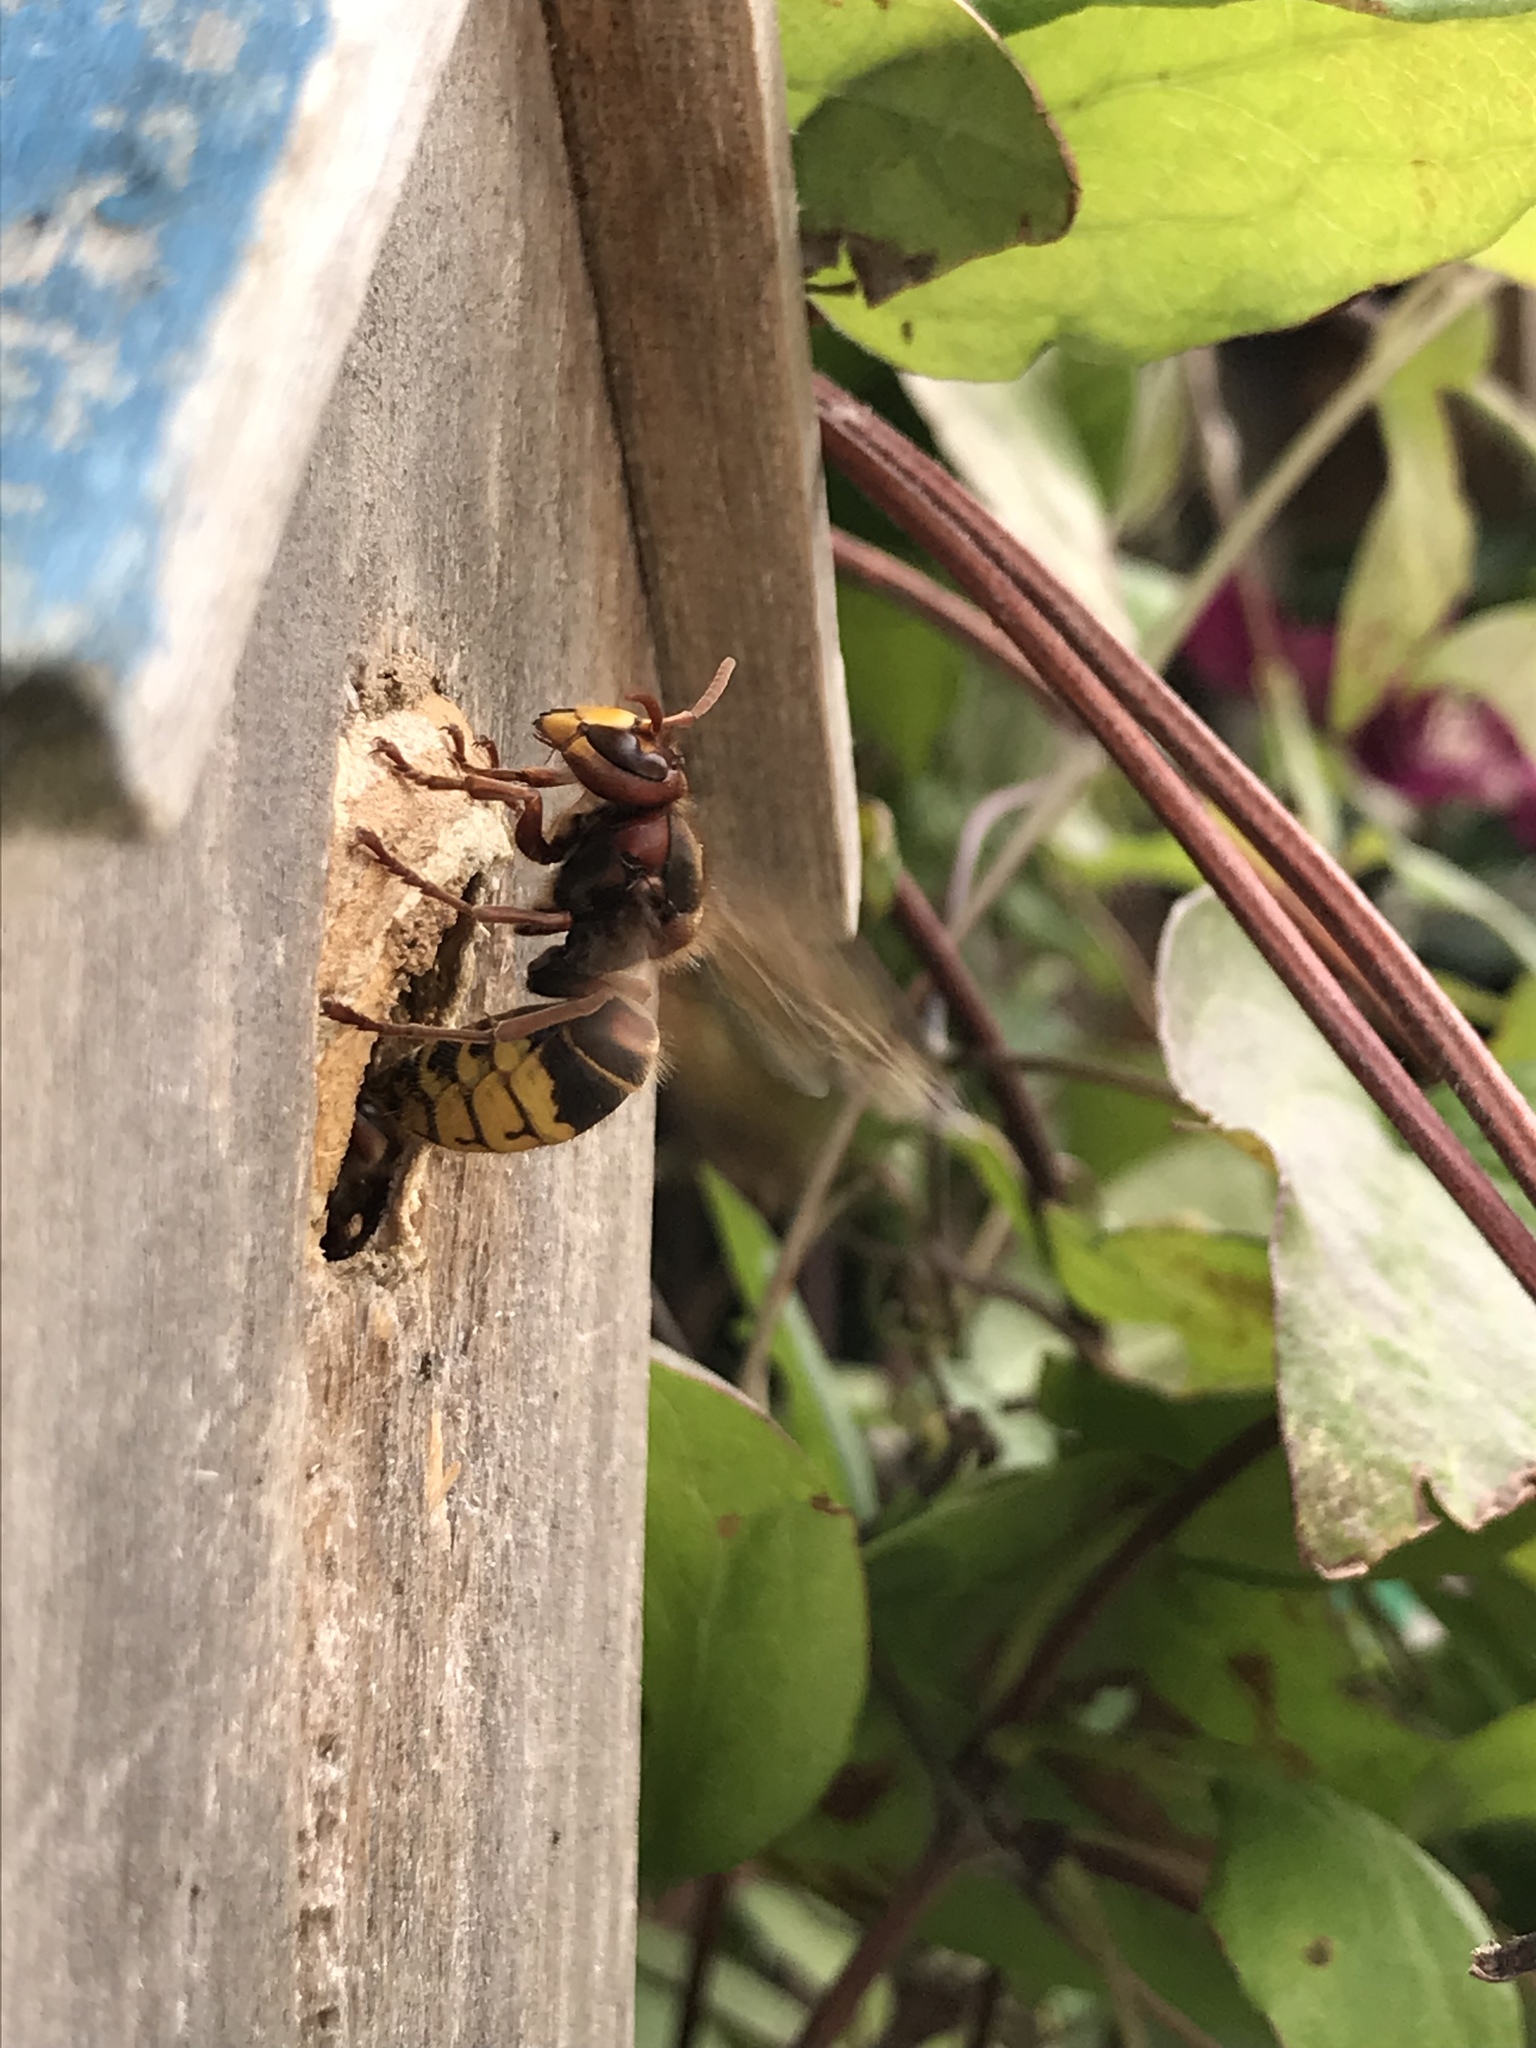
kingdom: Animalia
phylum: Arthropoda
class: Insecta
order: Hymenoptera
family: Vespidae
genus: Vespa
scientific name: Vespa crabro
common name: Hornet
